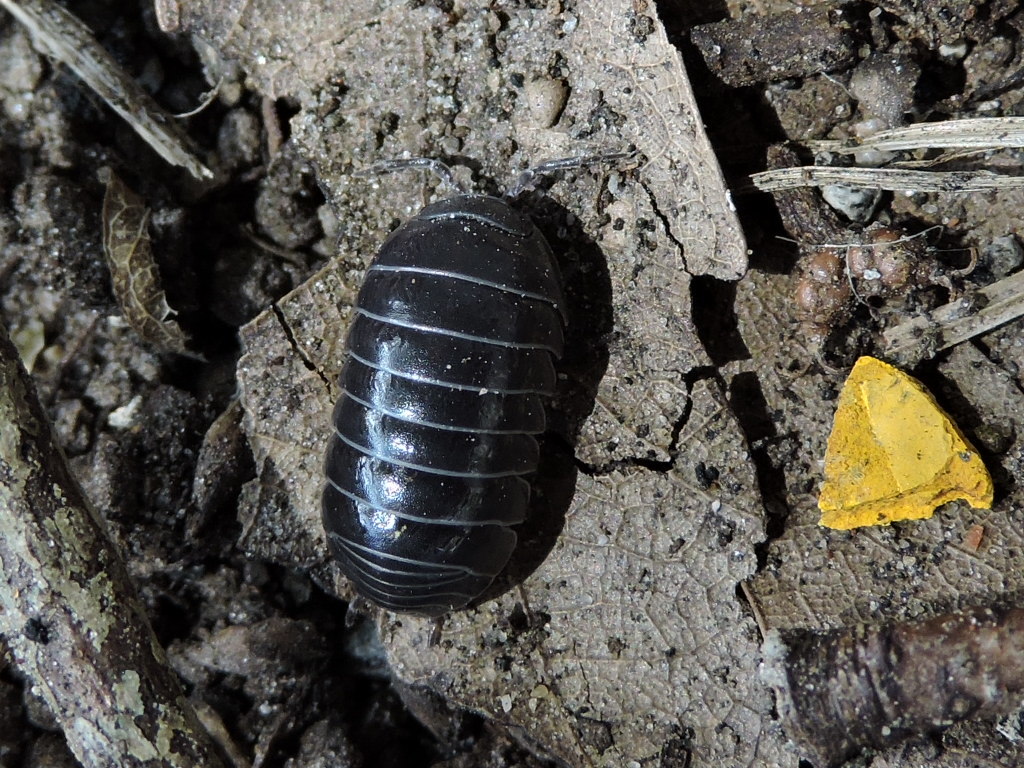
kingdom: Animalia
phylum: Arthropoda
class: Malacostraca
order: Isopoda
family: Armadillidiidae
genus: Armadillidium
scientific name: Armadillidium vulgare
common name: Common pill woodlouse
